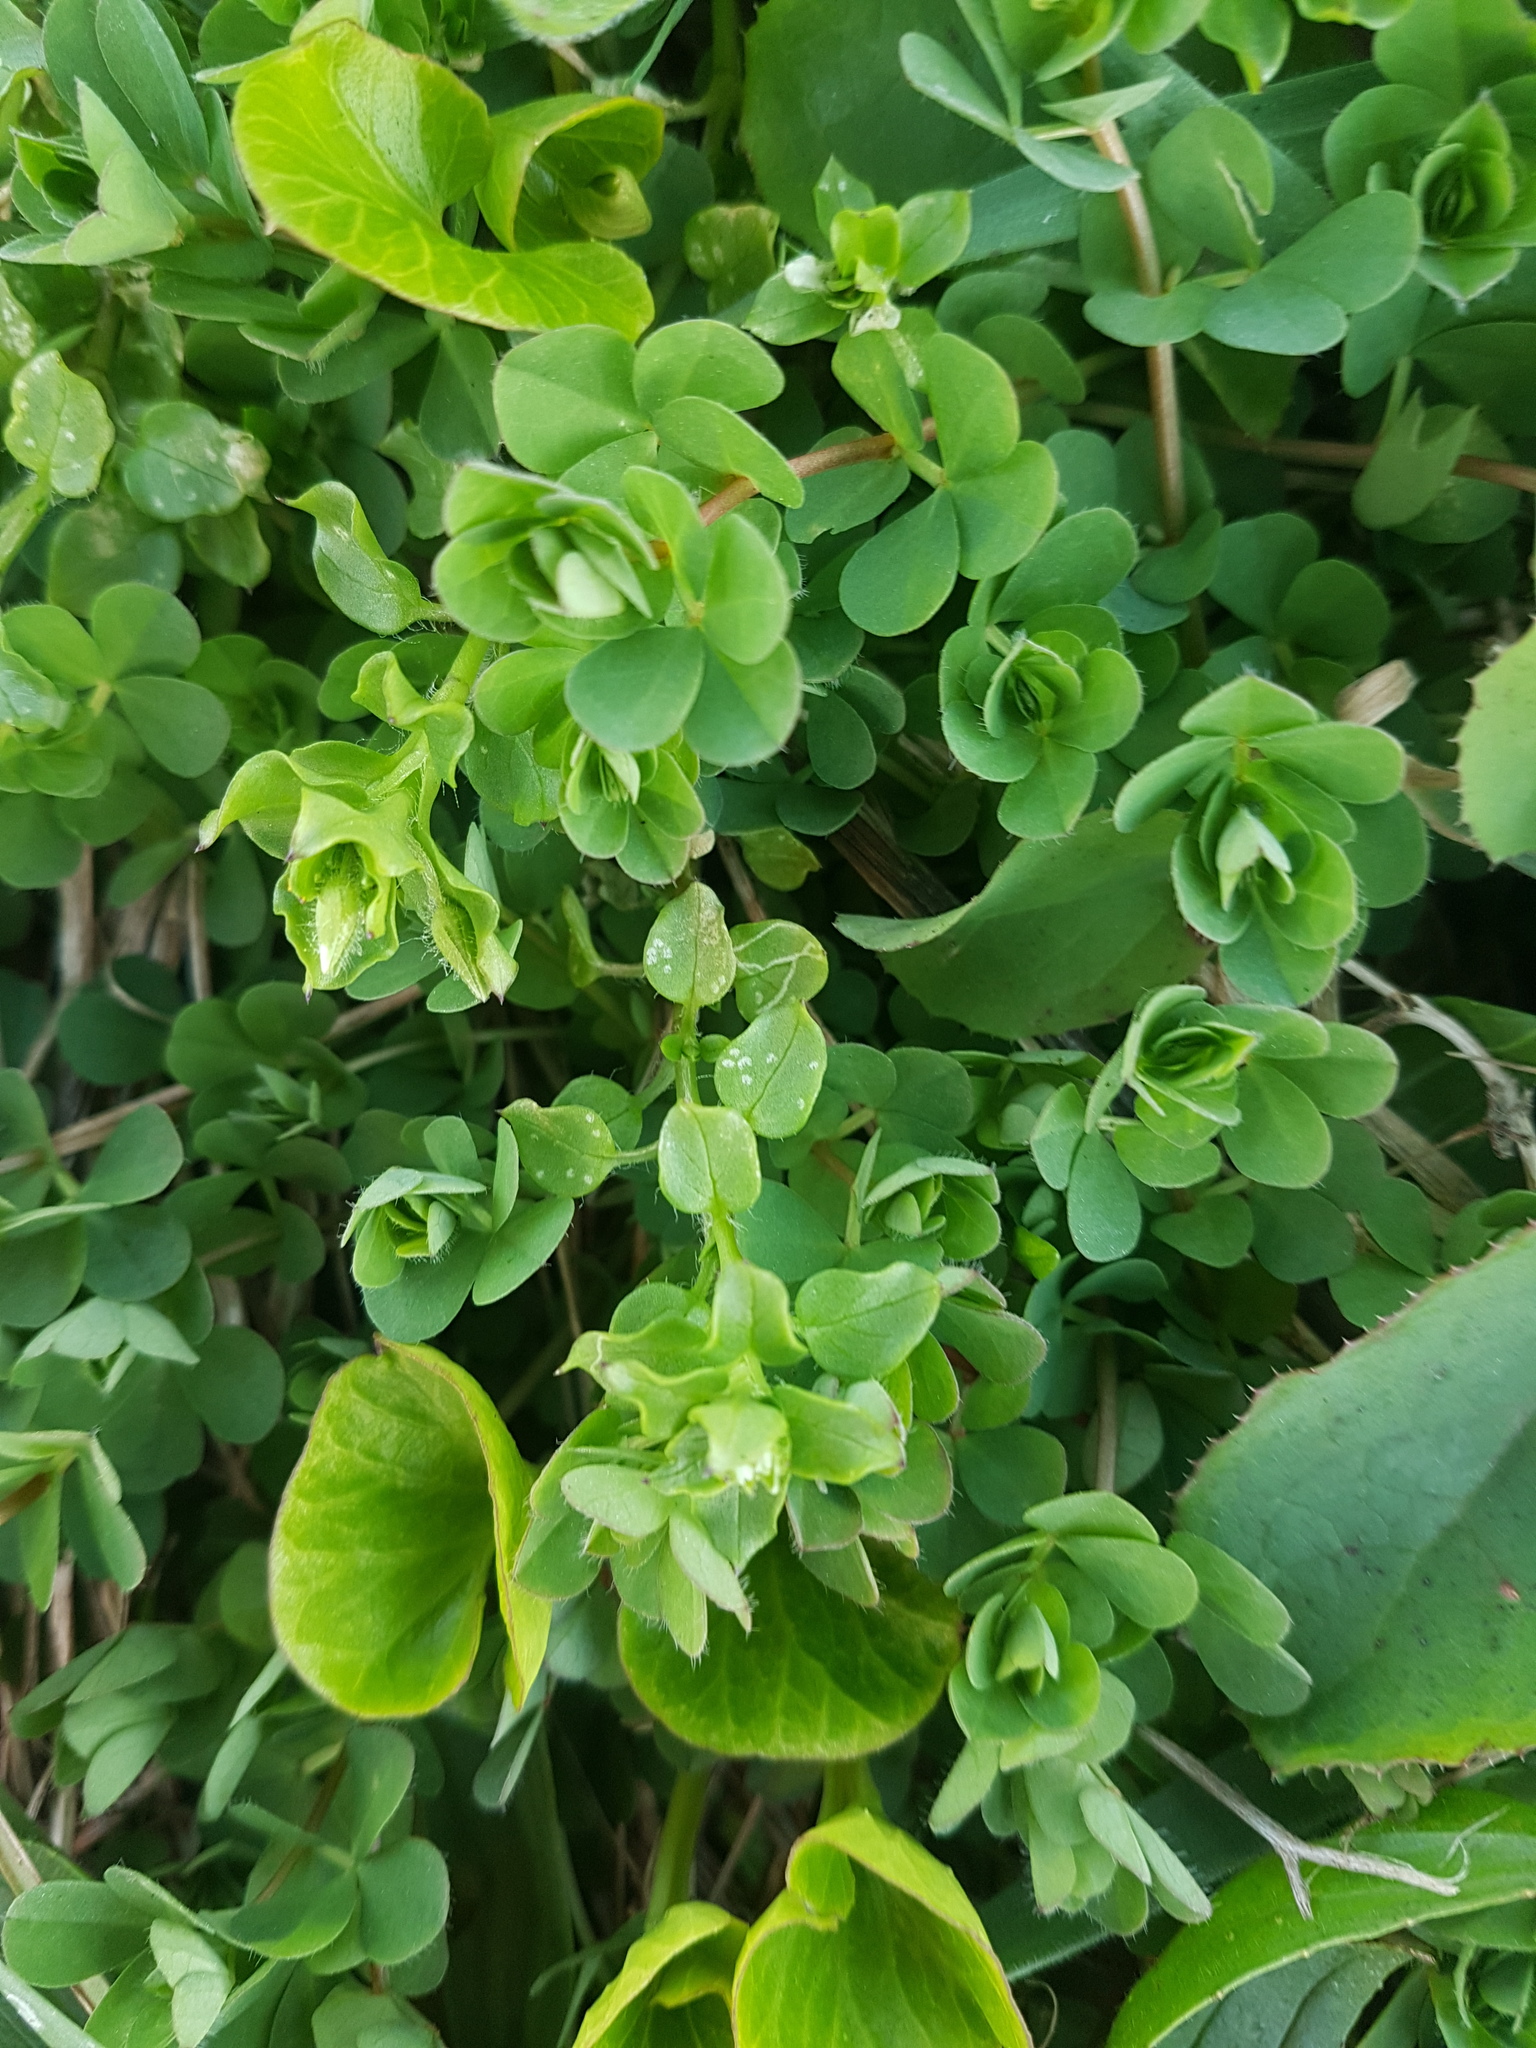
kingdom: Plantae
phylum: Tracheophyta
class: Magnoliopsida
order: Fabales
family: Fabaceae
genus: Lotus
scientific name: Lotus pedunculatus
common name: Greater birdsfoot-trefoil
